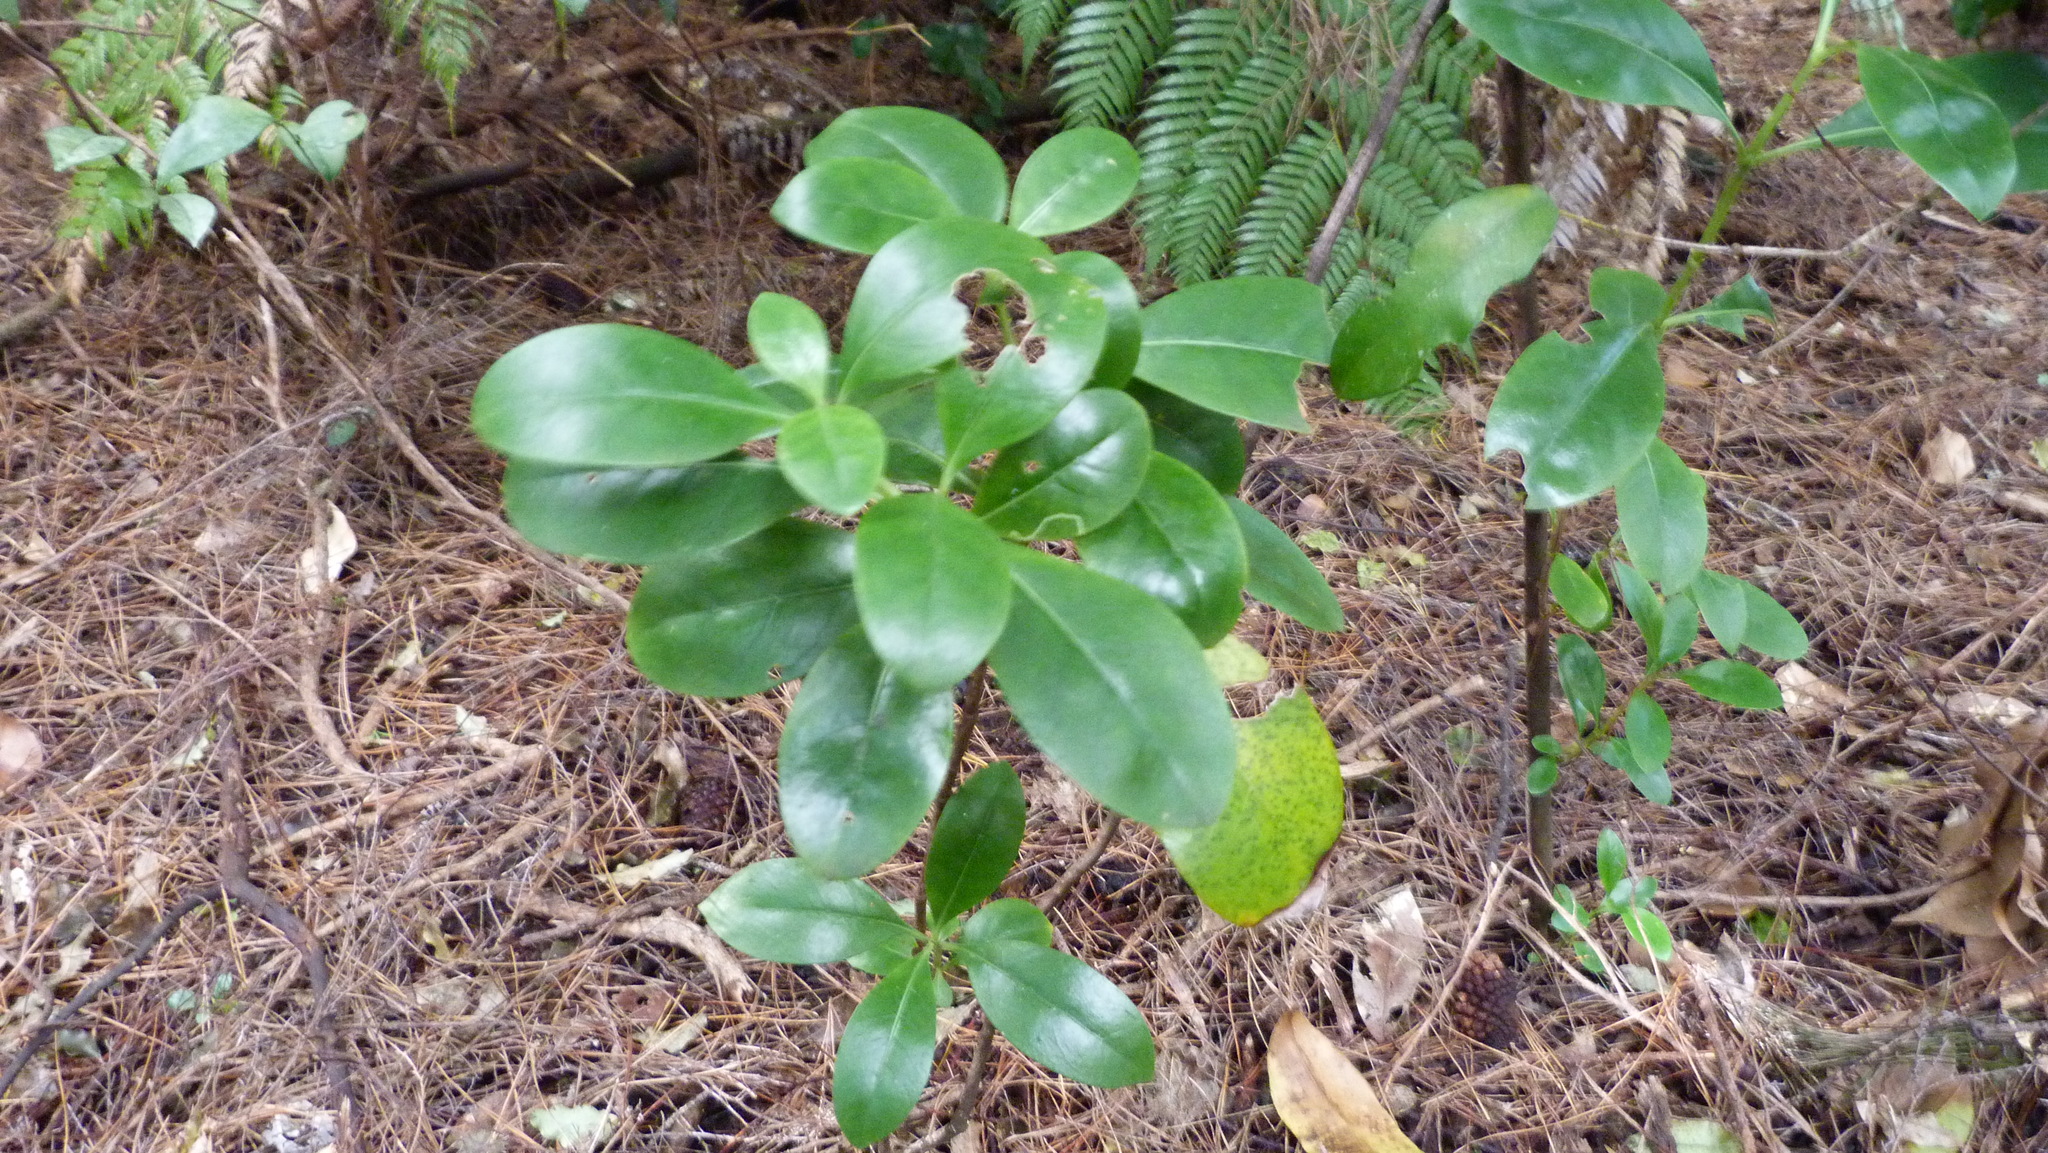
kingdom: Plantae
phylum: Tracheophyta
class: Magnoliopsida
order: Gentianales
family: Rubiaceae
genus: Coprosma
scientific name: Coprosma lucida
